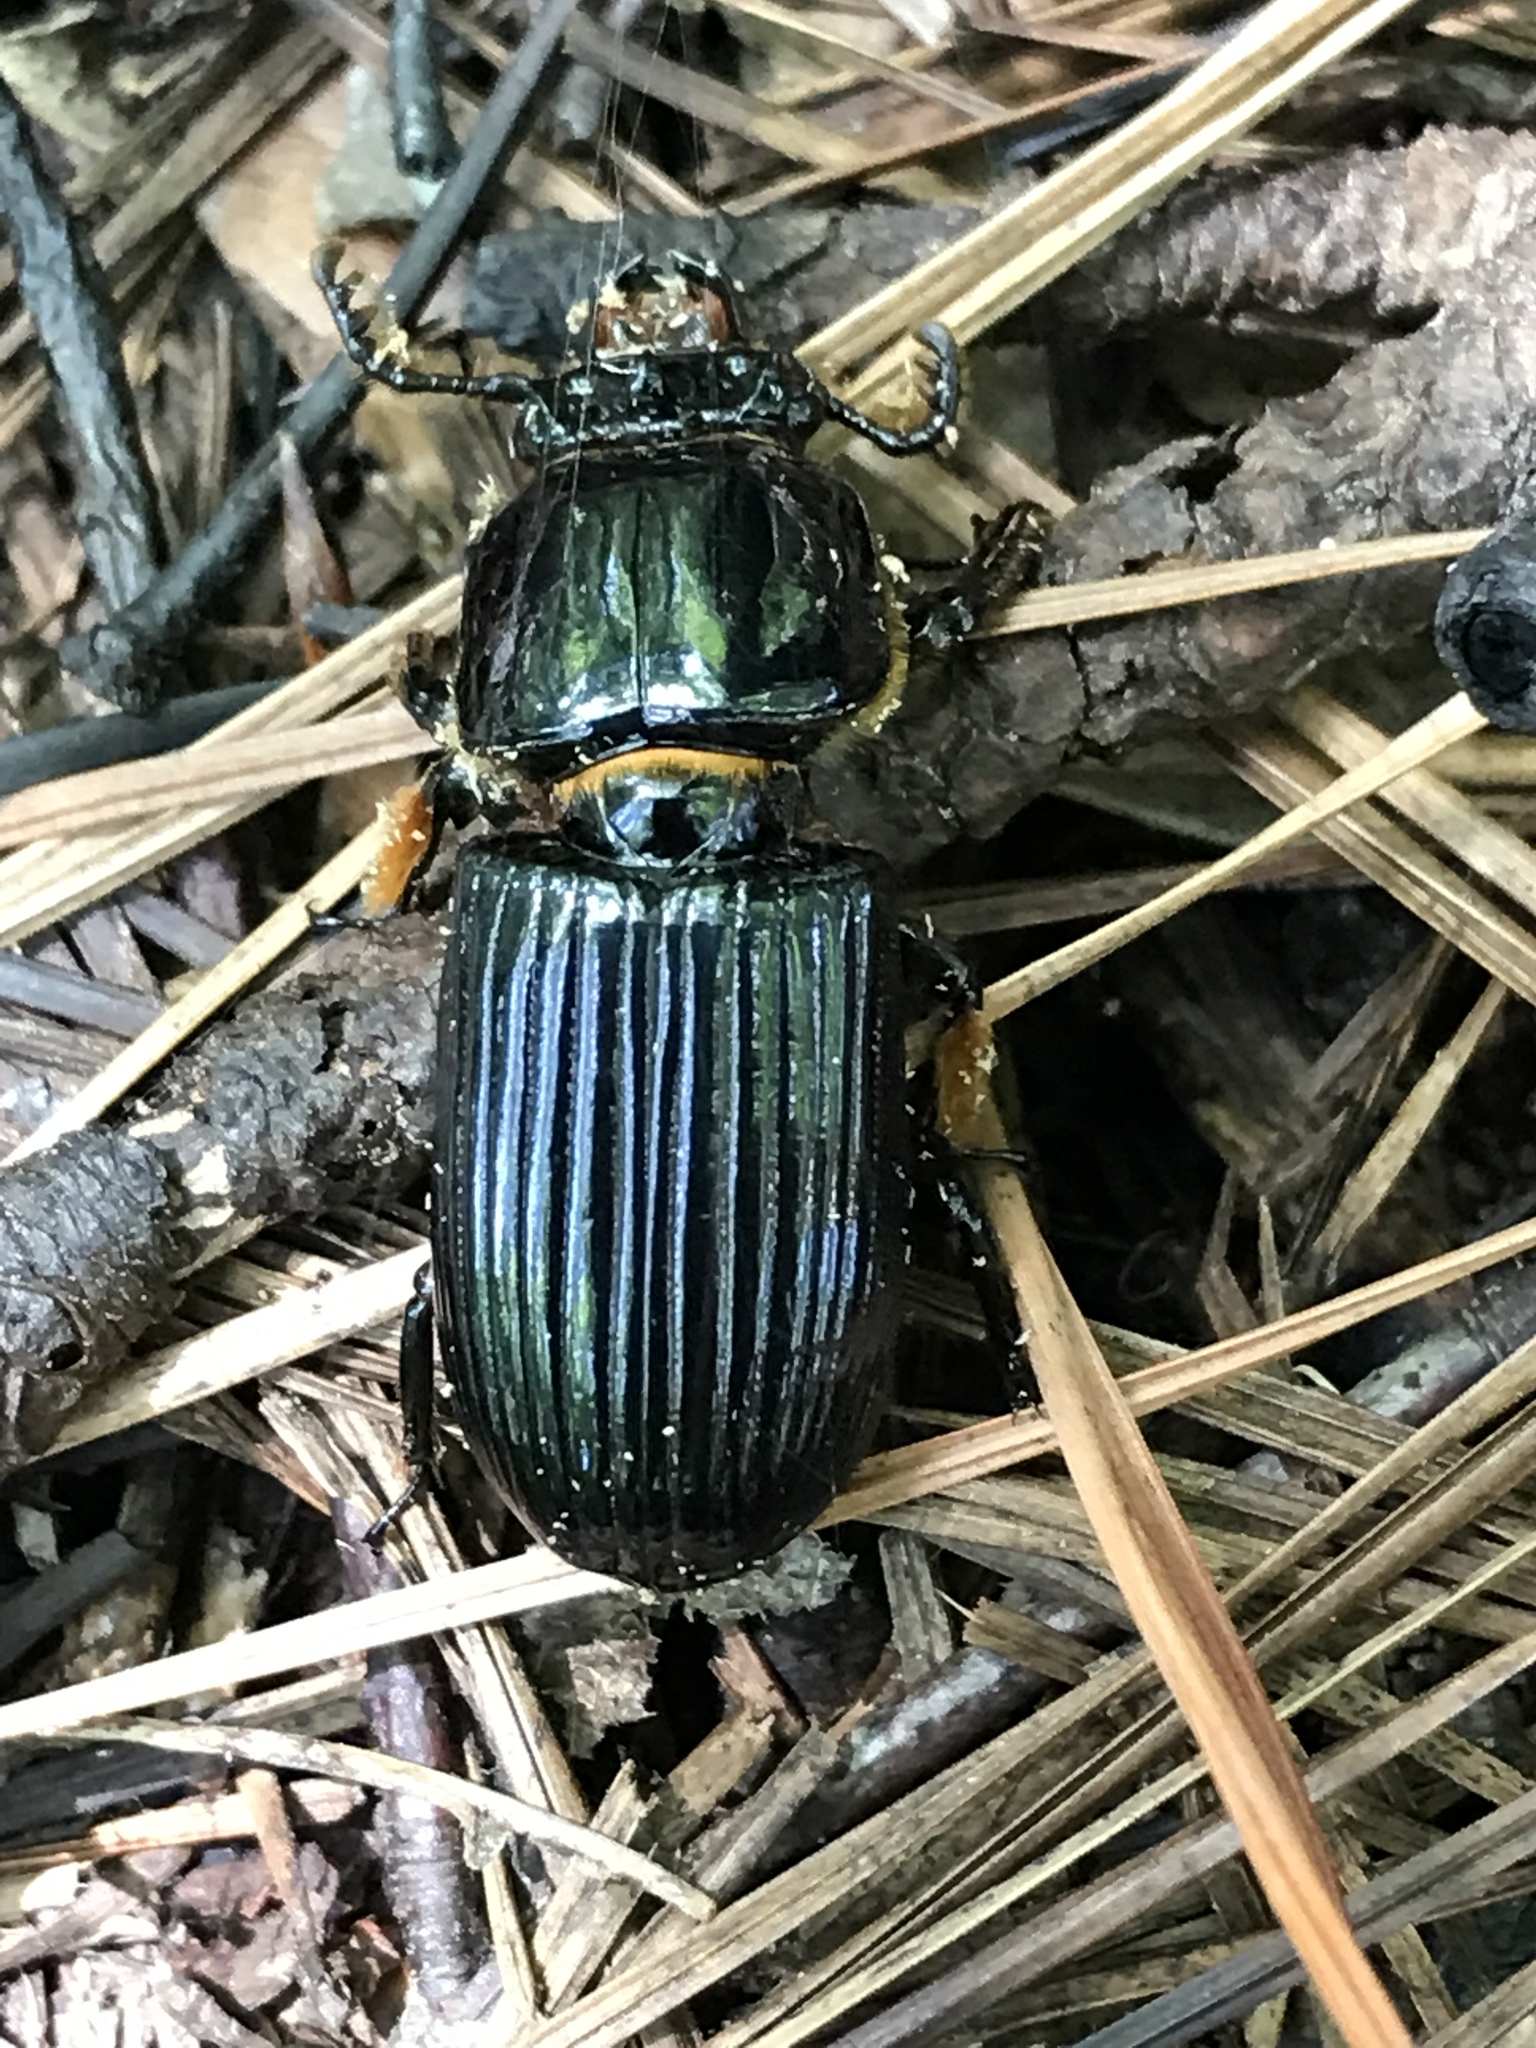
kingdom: Animalia
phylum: Arthropoda
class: Insecta
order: Coleoptera
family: Passalidae
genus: Odontotaenius
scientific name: Odontotaenius disjunctus
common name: Patent leather beetle
